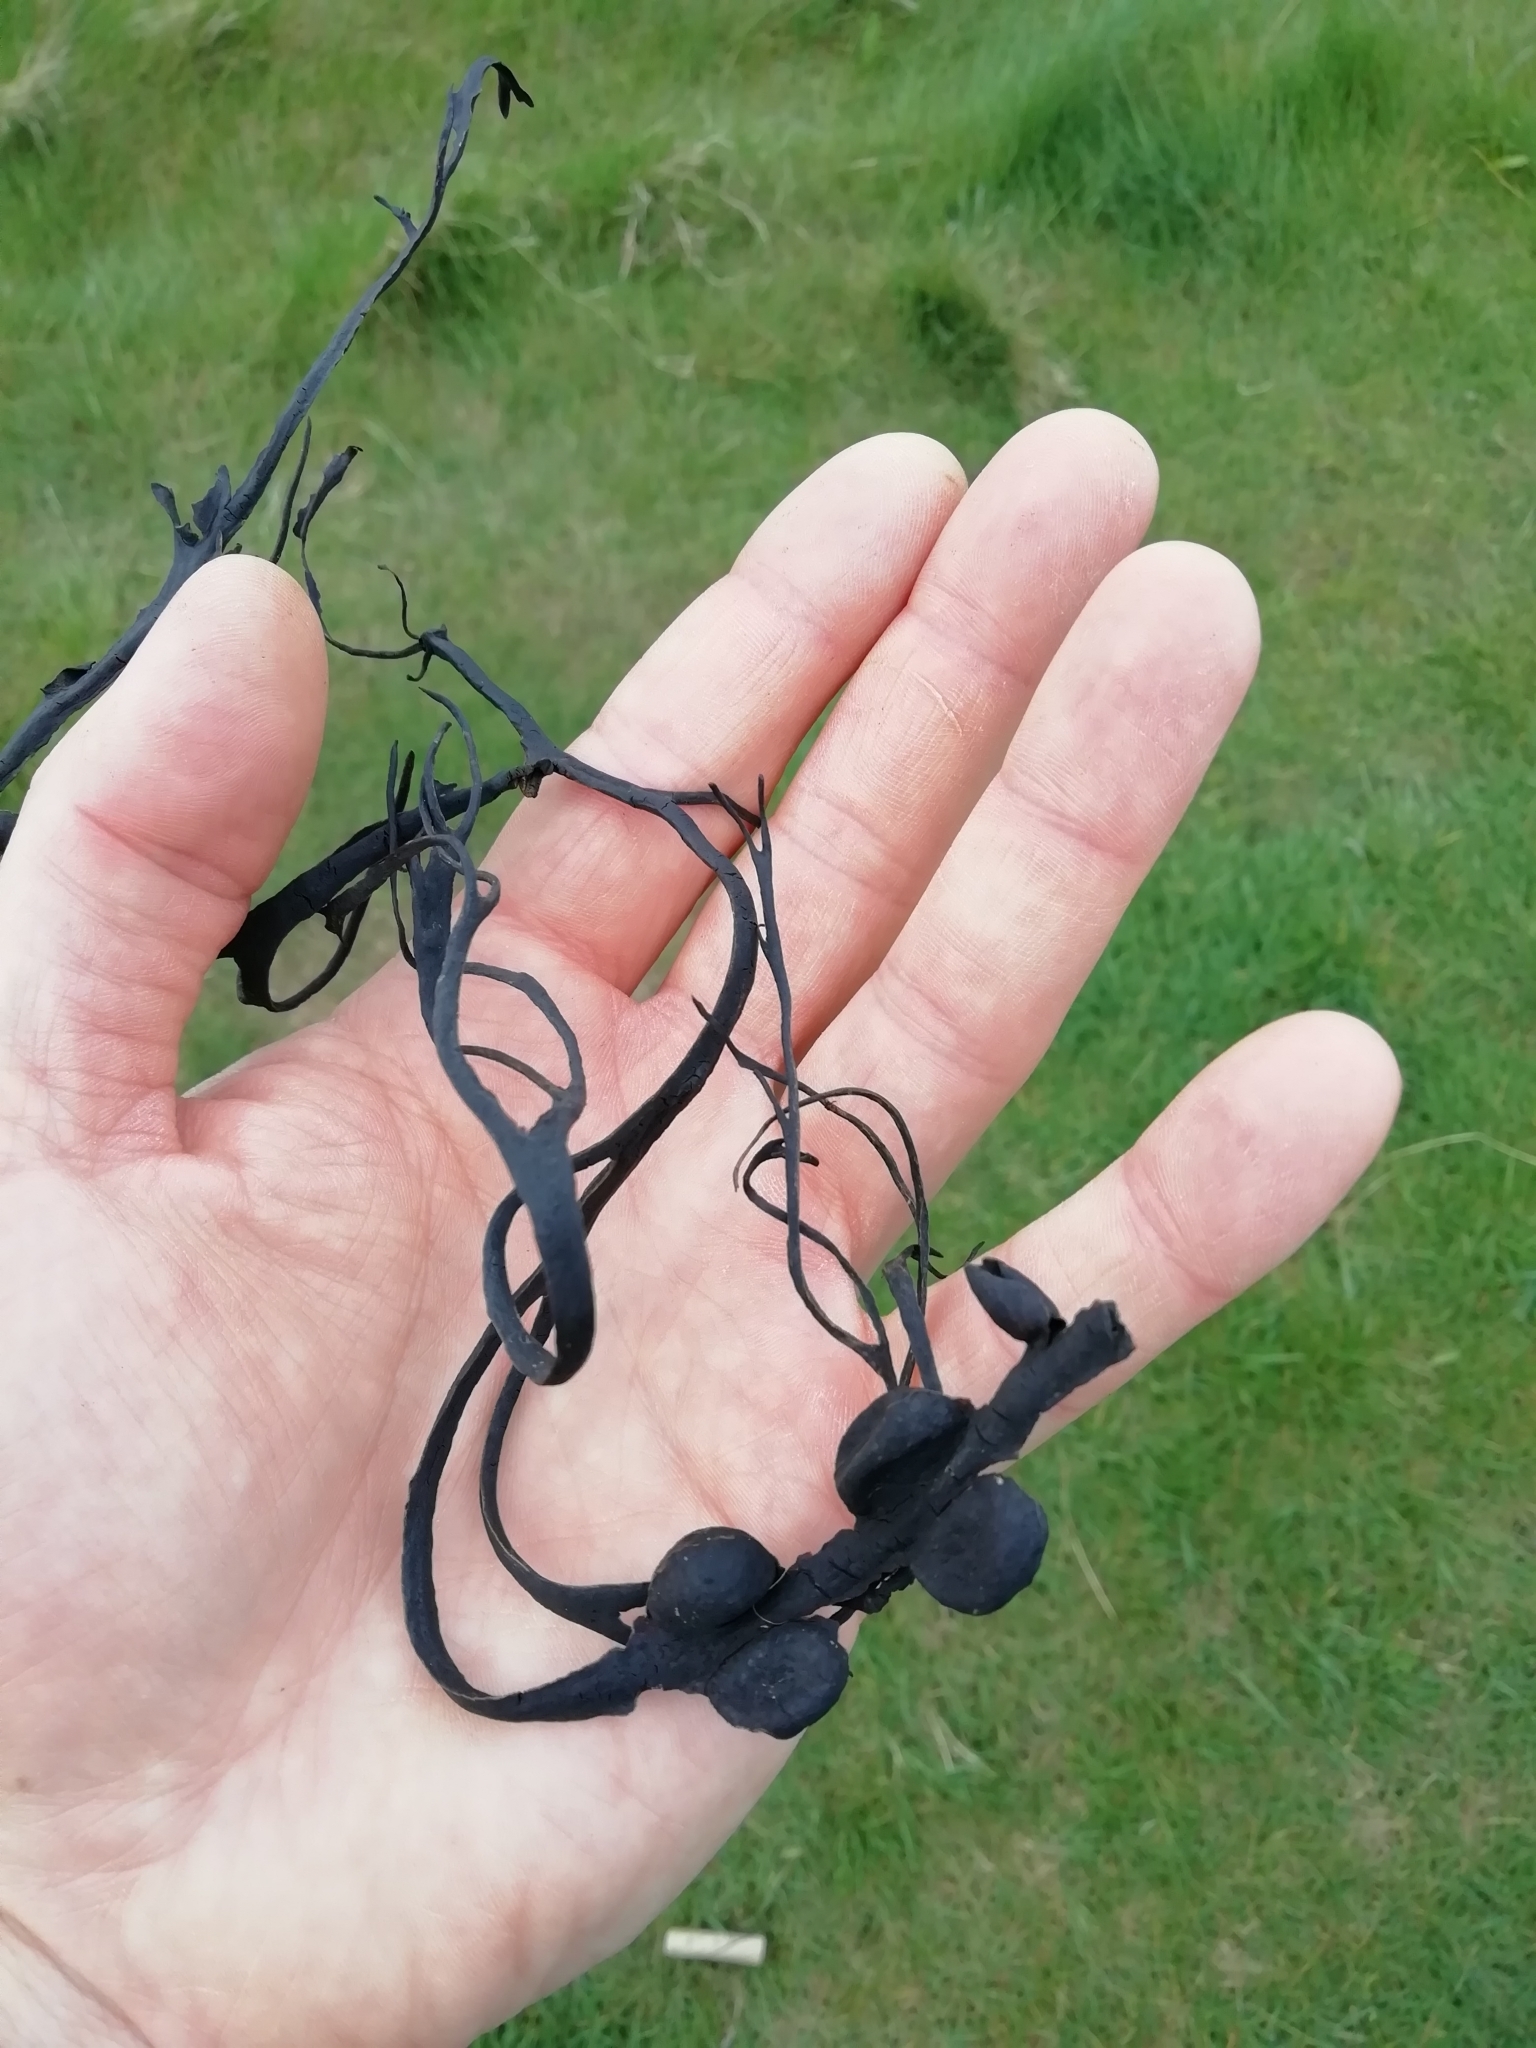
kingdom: Chromista
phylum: Ochrophyta
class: Phaeophyceae
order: Fucales
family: Fucaceae
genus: Fucus
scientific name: Fucus vesiculosus
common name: Bladder wrack
